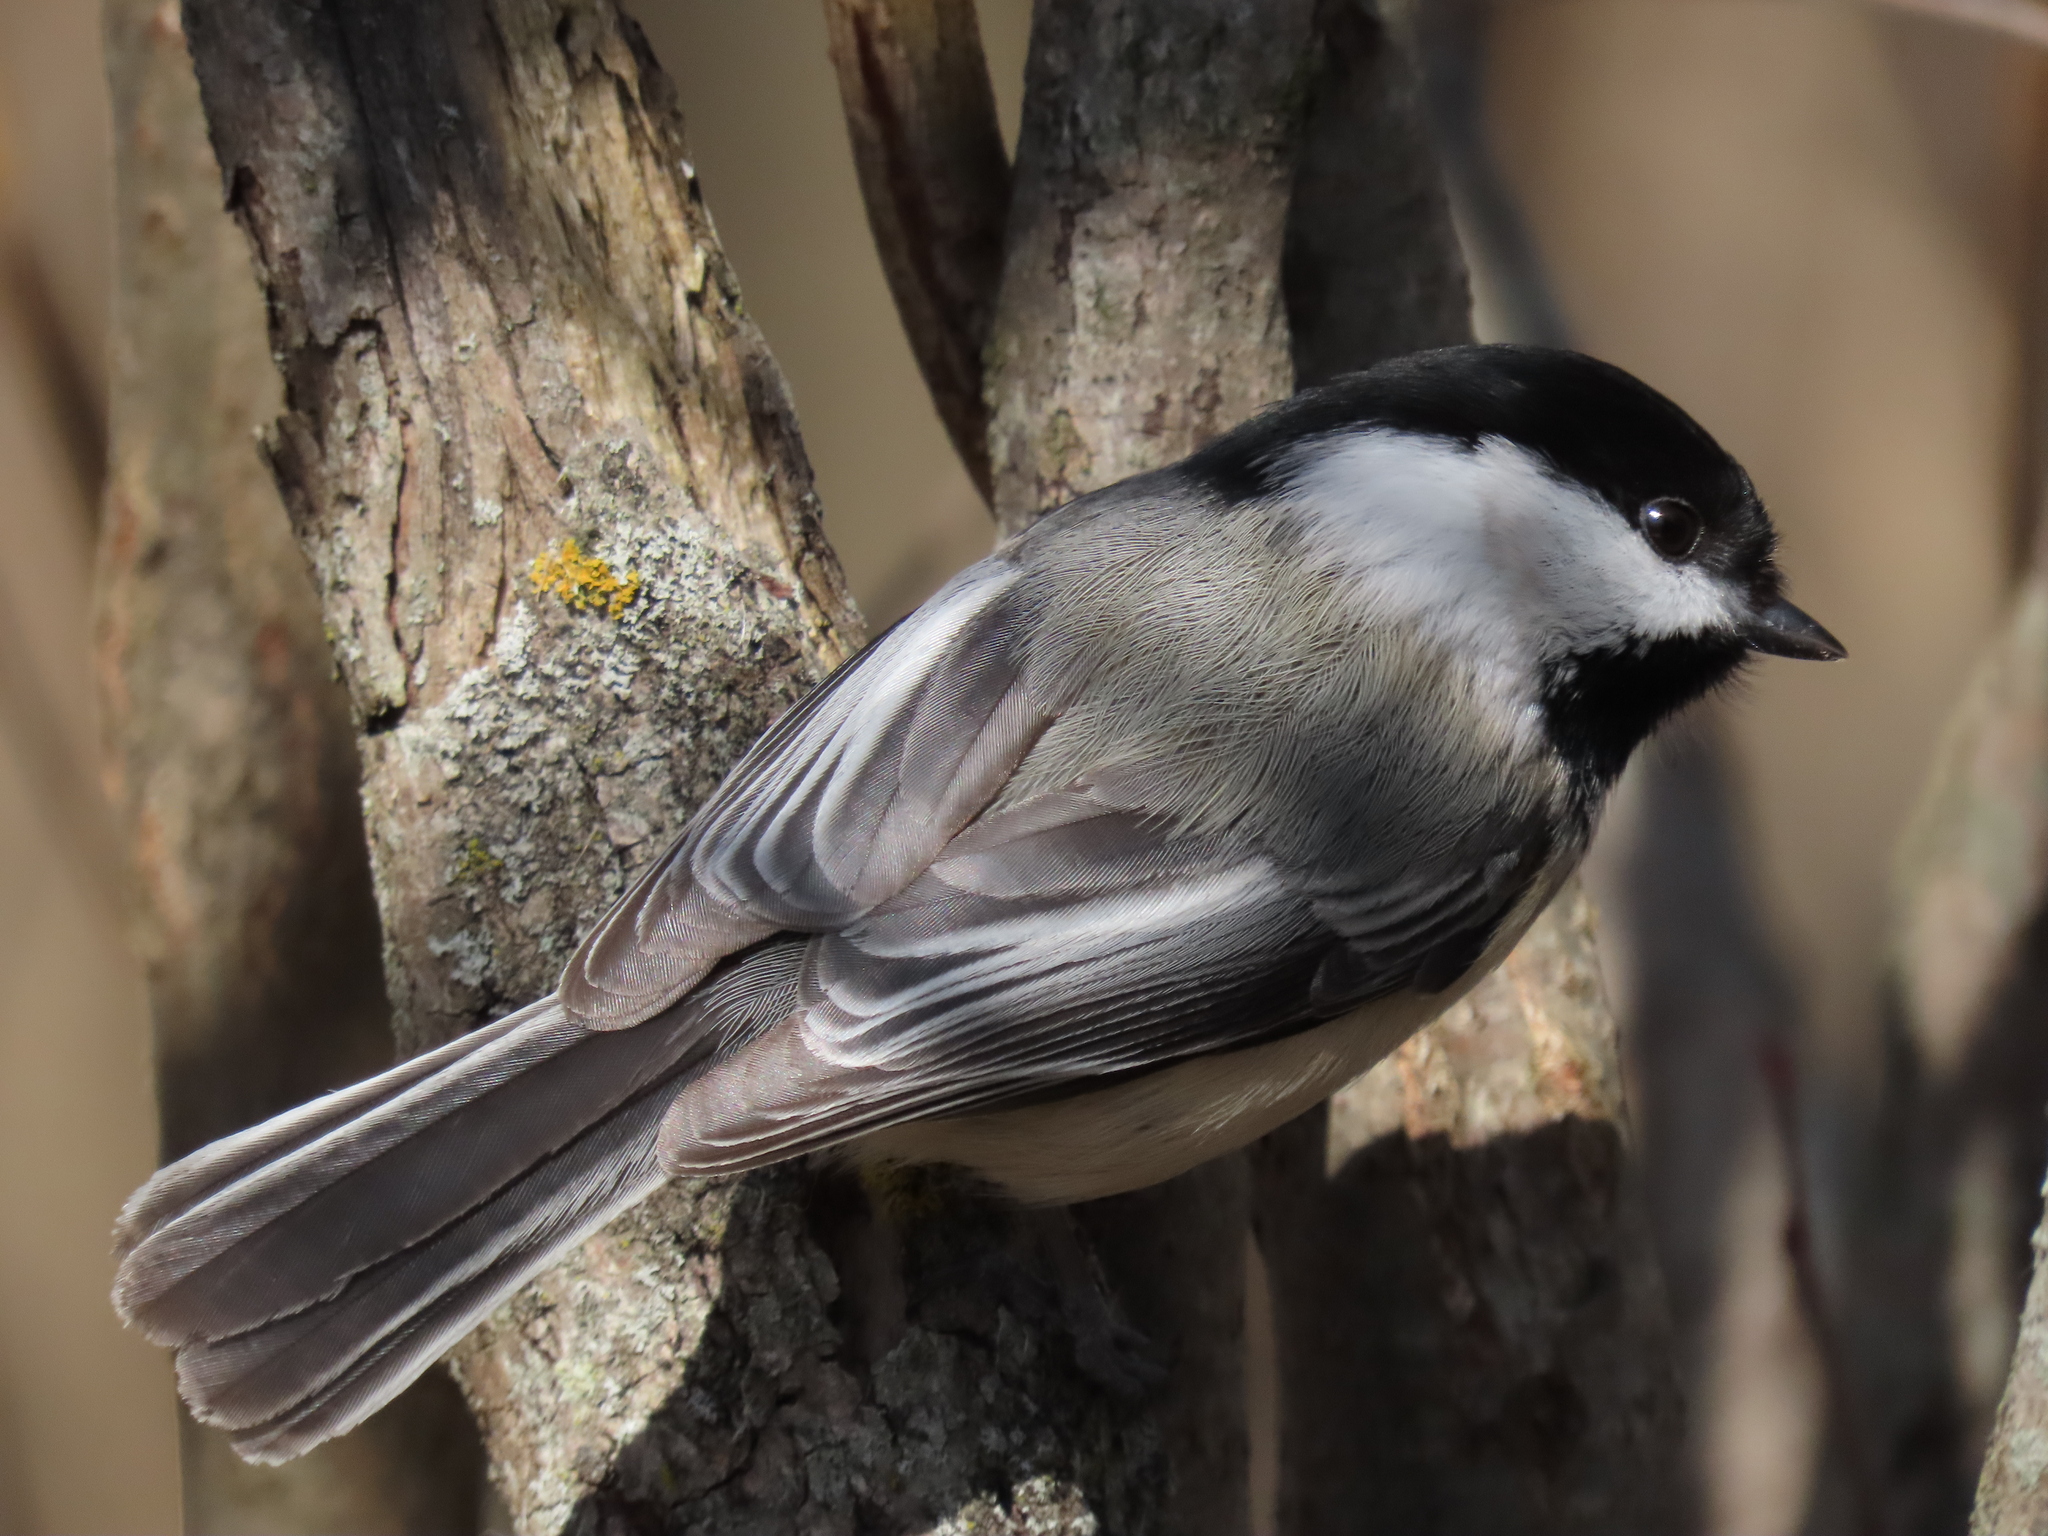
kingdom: Animalia
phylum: Chordata
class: Aves
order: Passeriformes
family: Paridae
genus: Poecile
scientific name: Poecile atricapillus
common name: Black-capped chickadee
